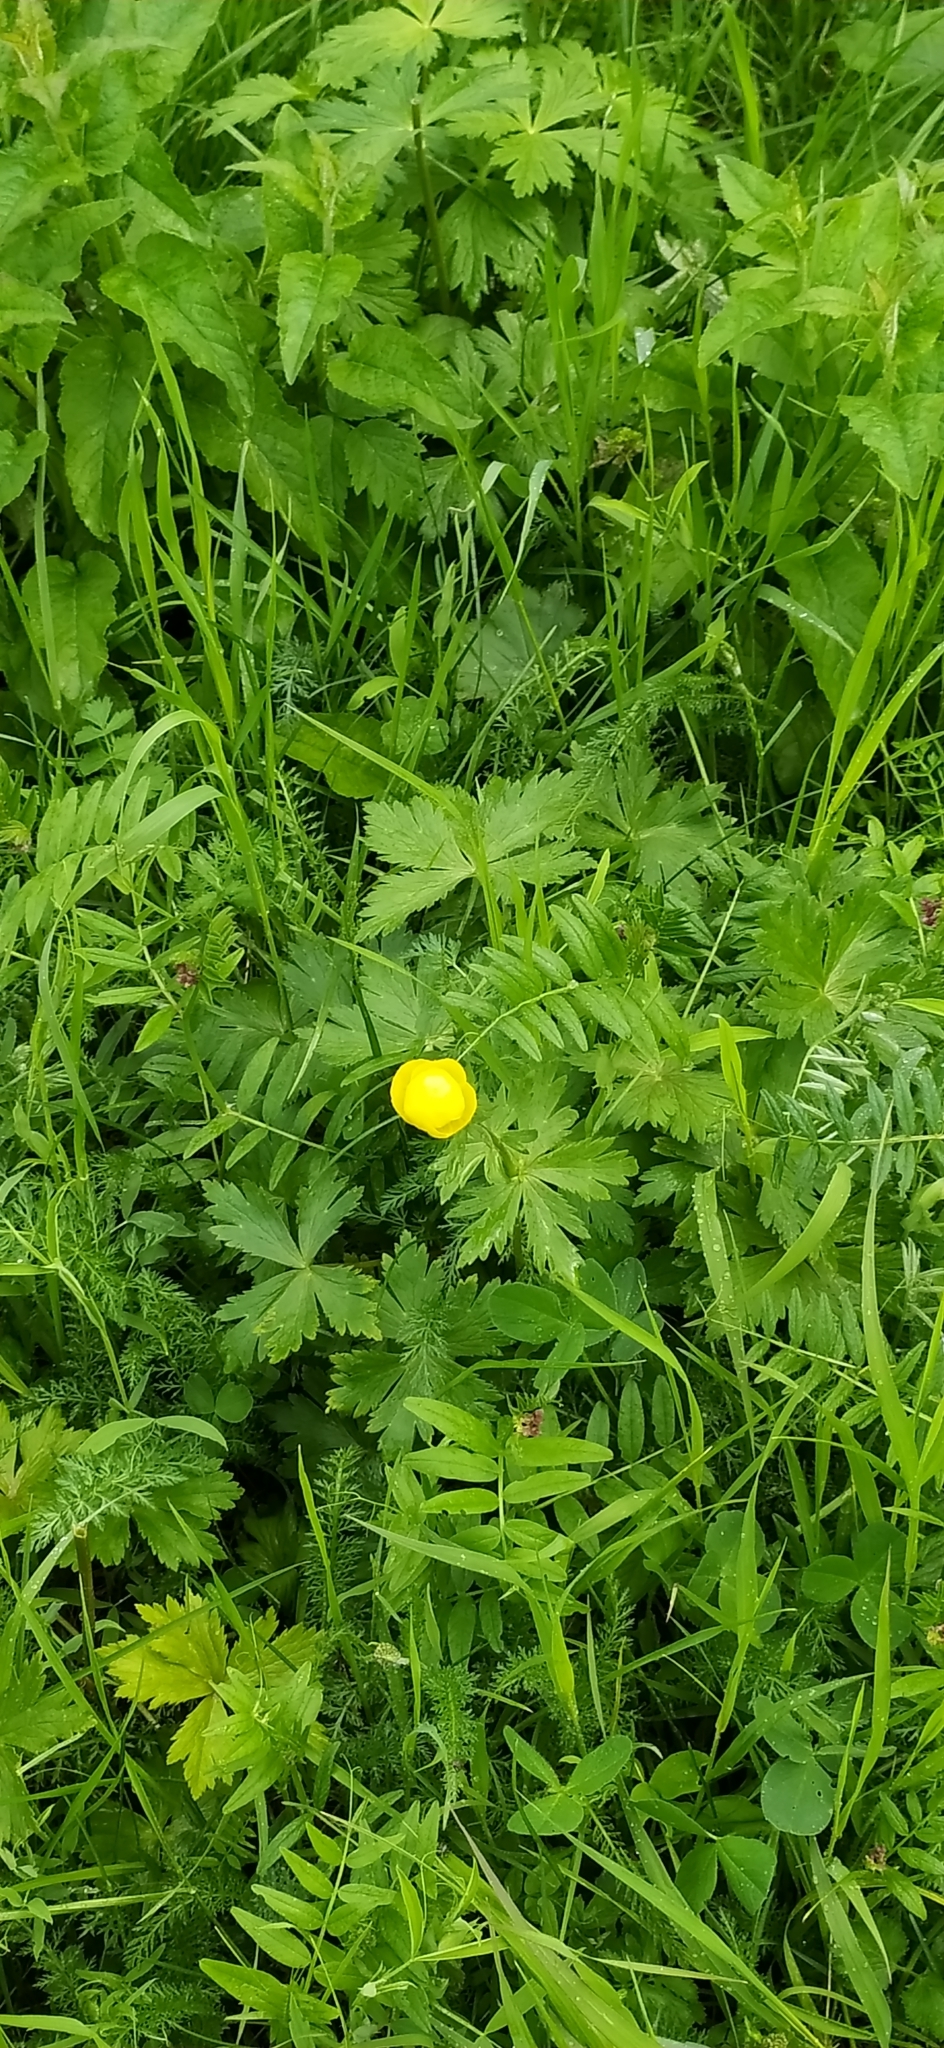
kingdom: Plantae
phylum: Tracheophyta
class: Magnoliopsida
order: Ranunculales
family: Ranunculaceae
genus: Trollius
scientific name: Trollius europaeus
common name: European globeflower
